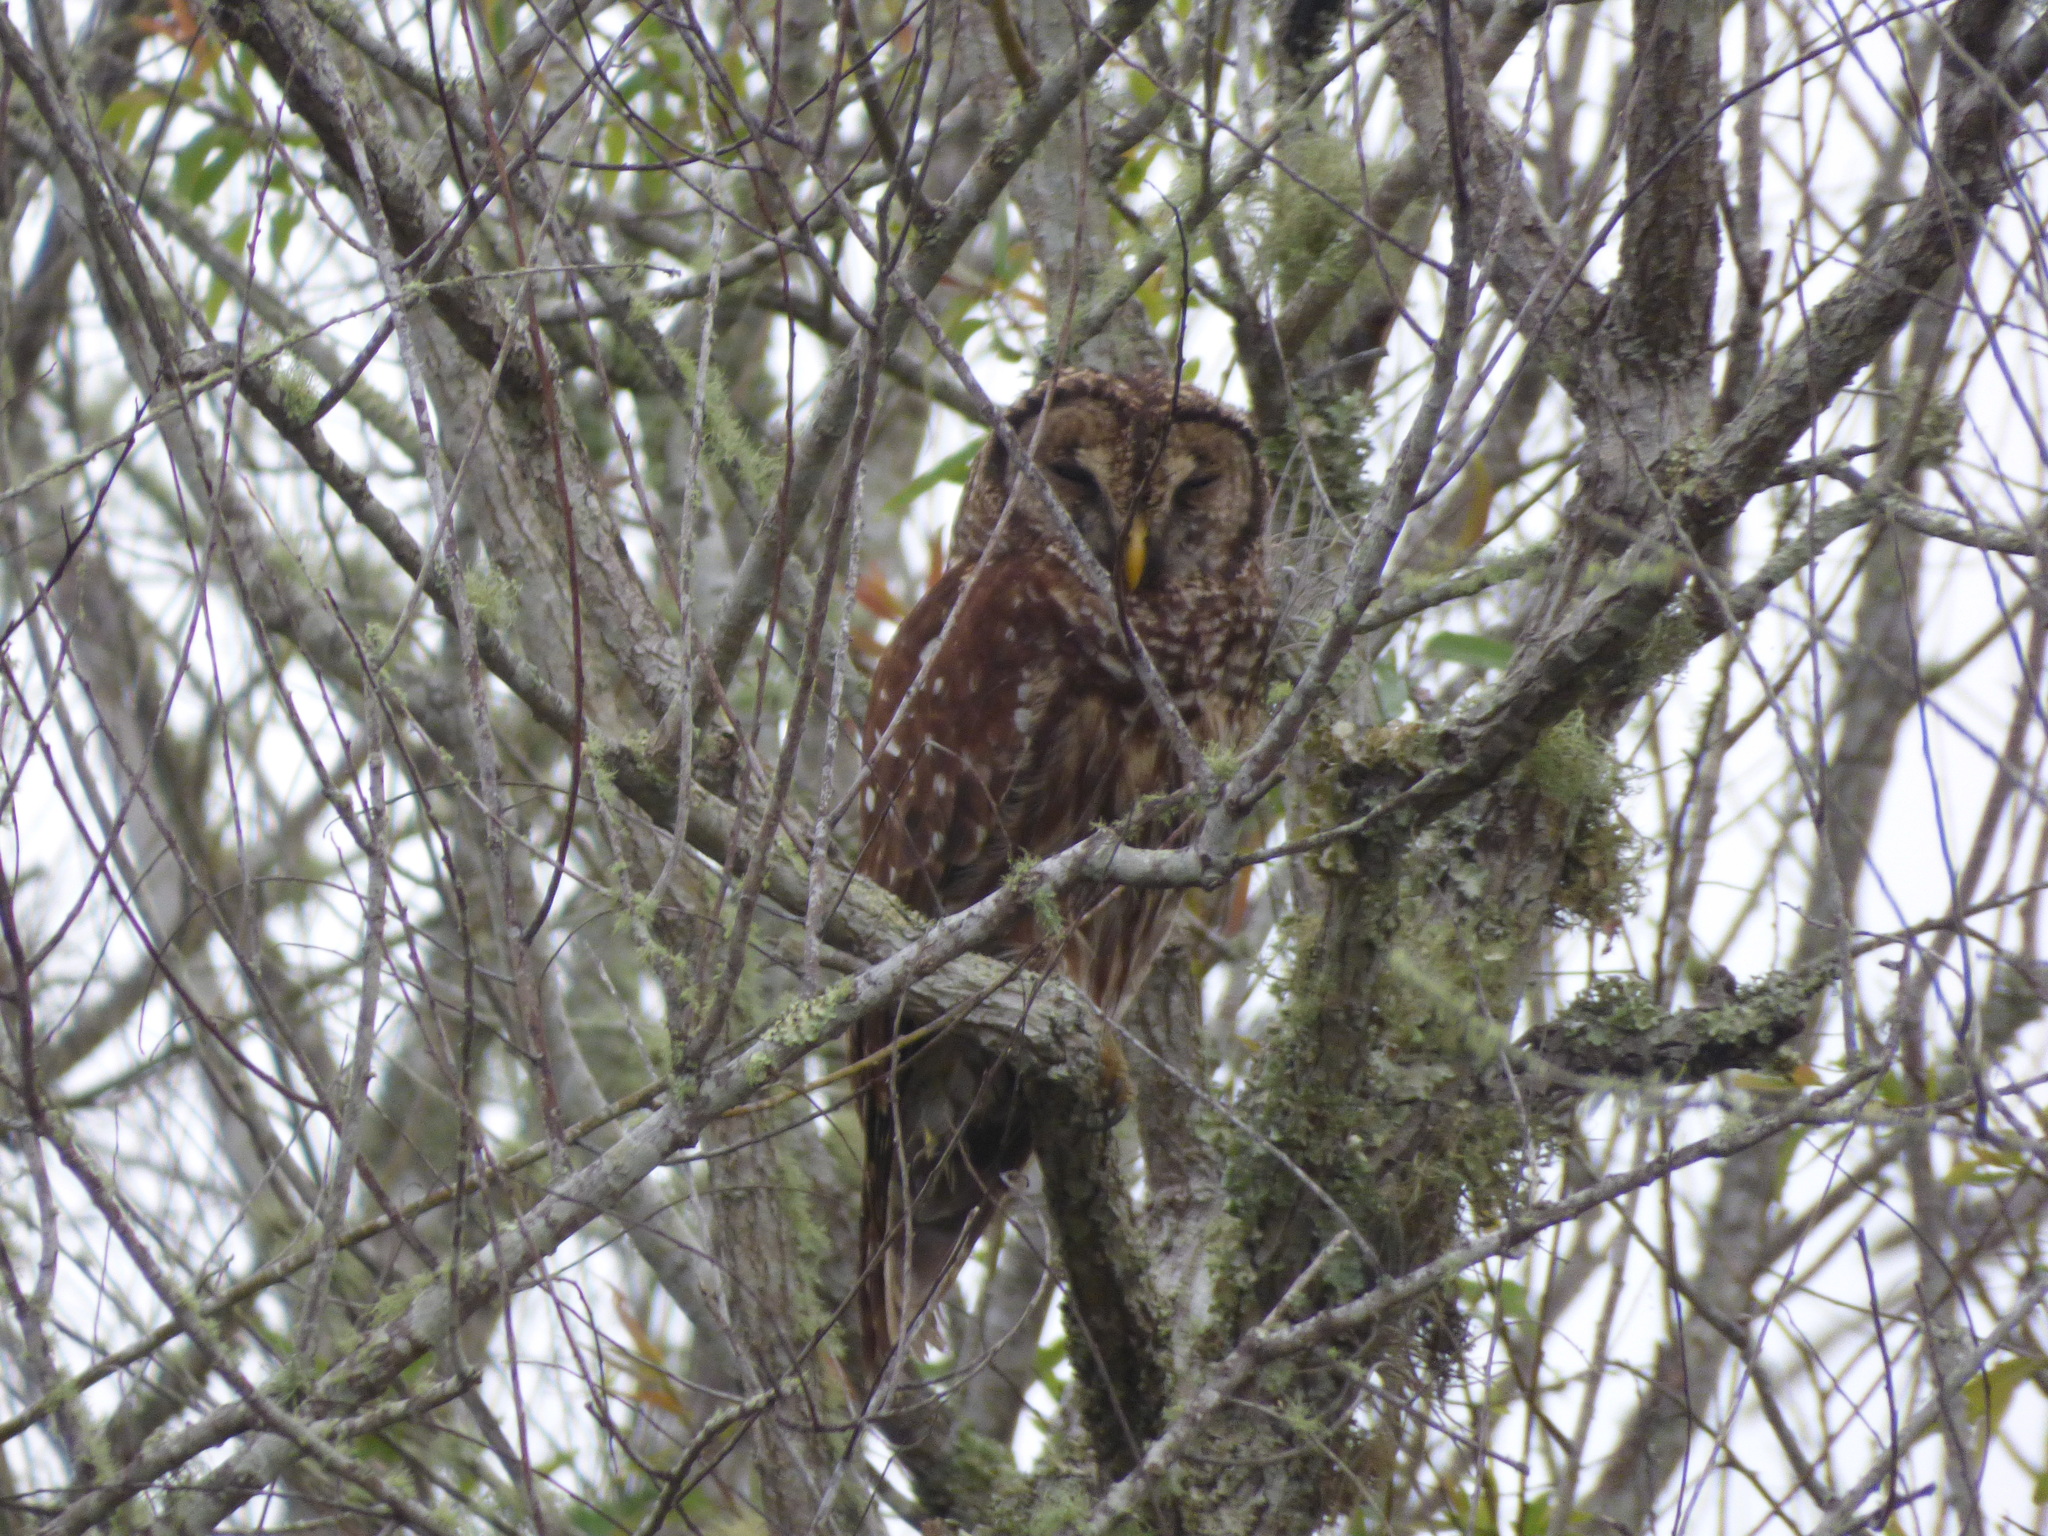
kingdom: Animalia
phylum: Chordata
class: Aves
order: Strigiformes
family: Strigidae
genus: Strix
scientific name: Strix varia
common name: Barred owl
